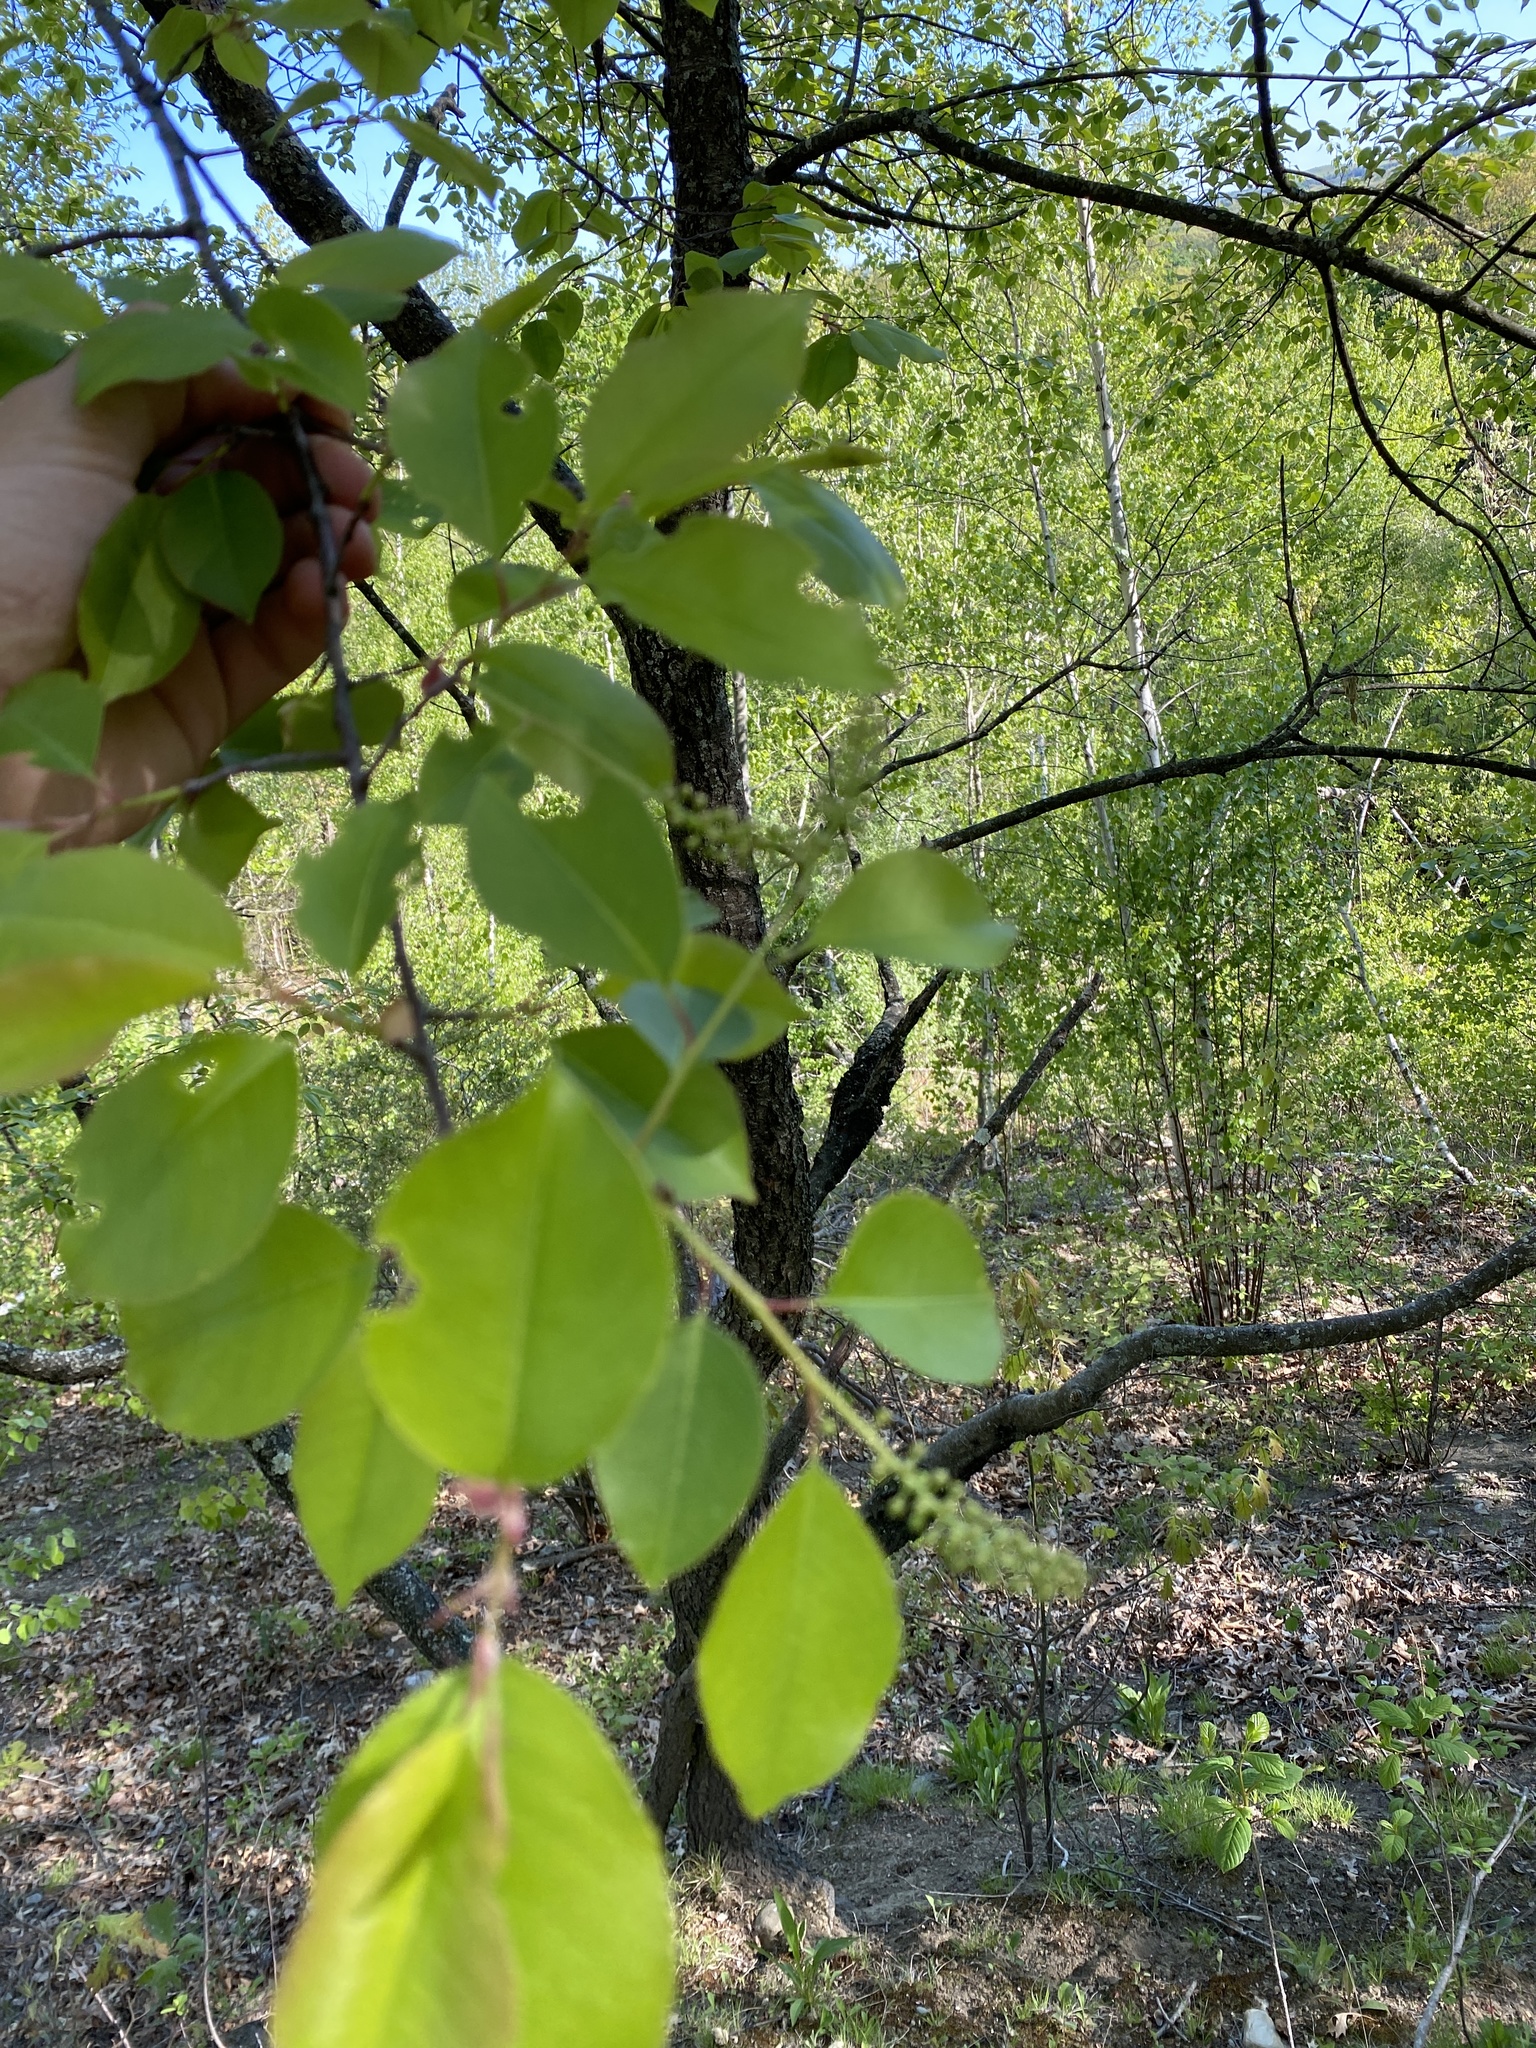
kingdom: Plantae
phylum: Tracheophyta
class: Magnoliopsida
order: Rosales
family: Rosaceae
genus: Prunus
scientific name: Prunus serotina
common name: Black cherry
